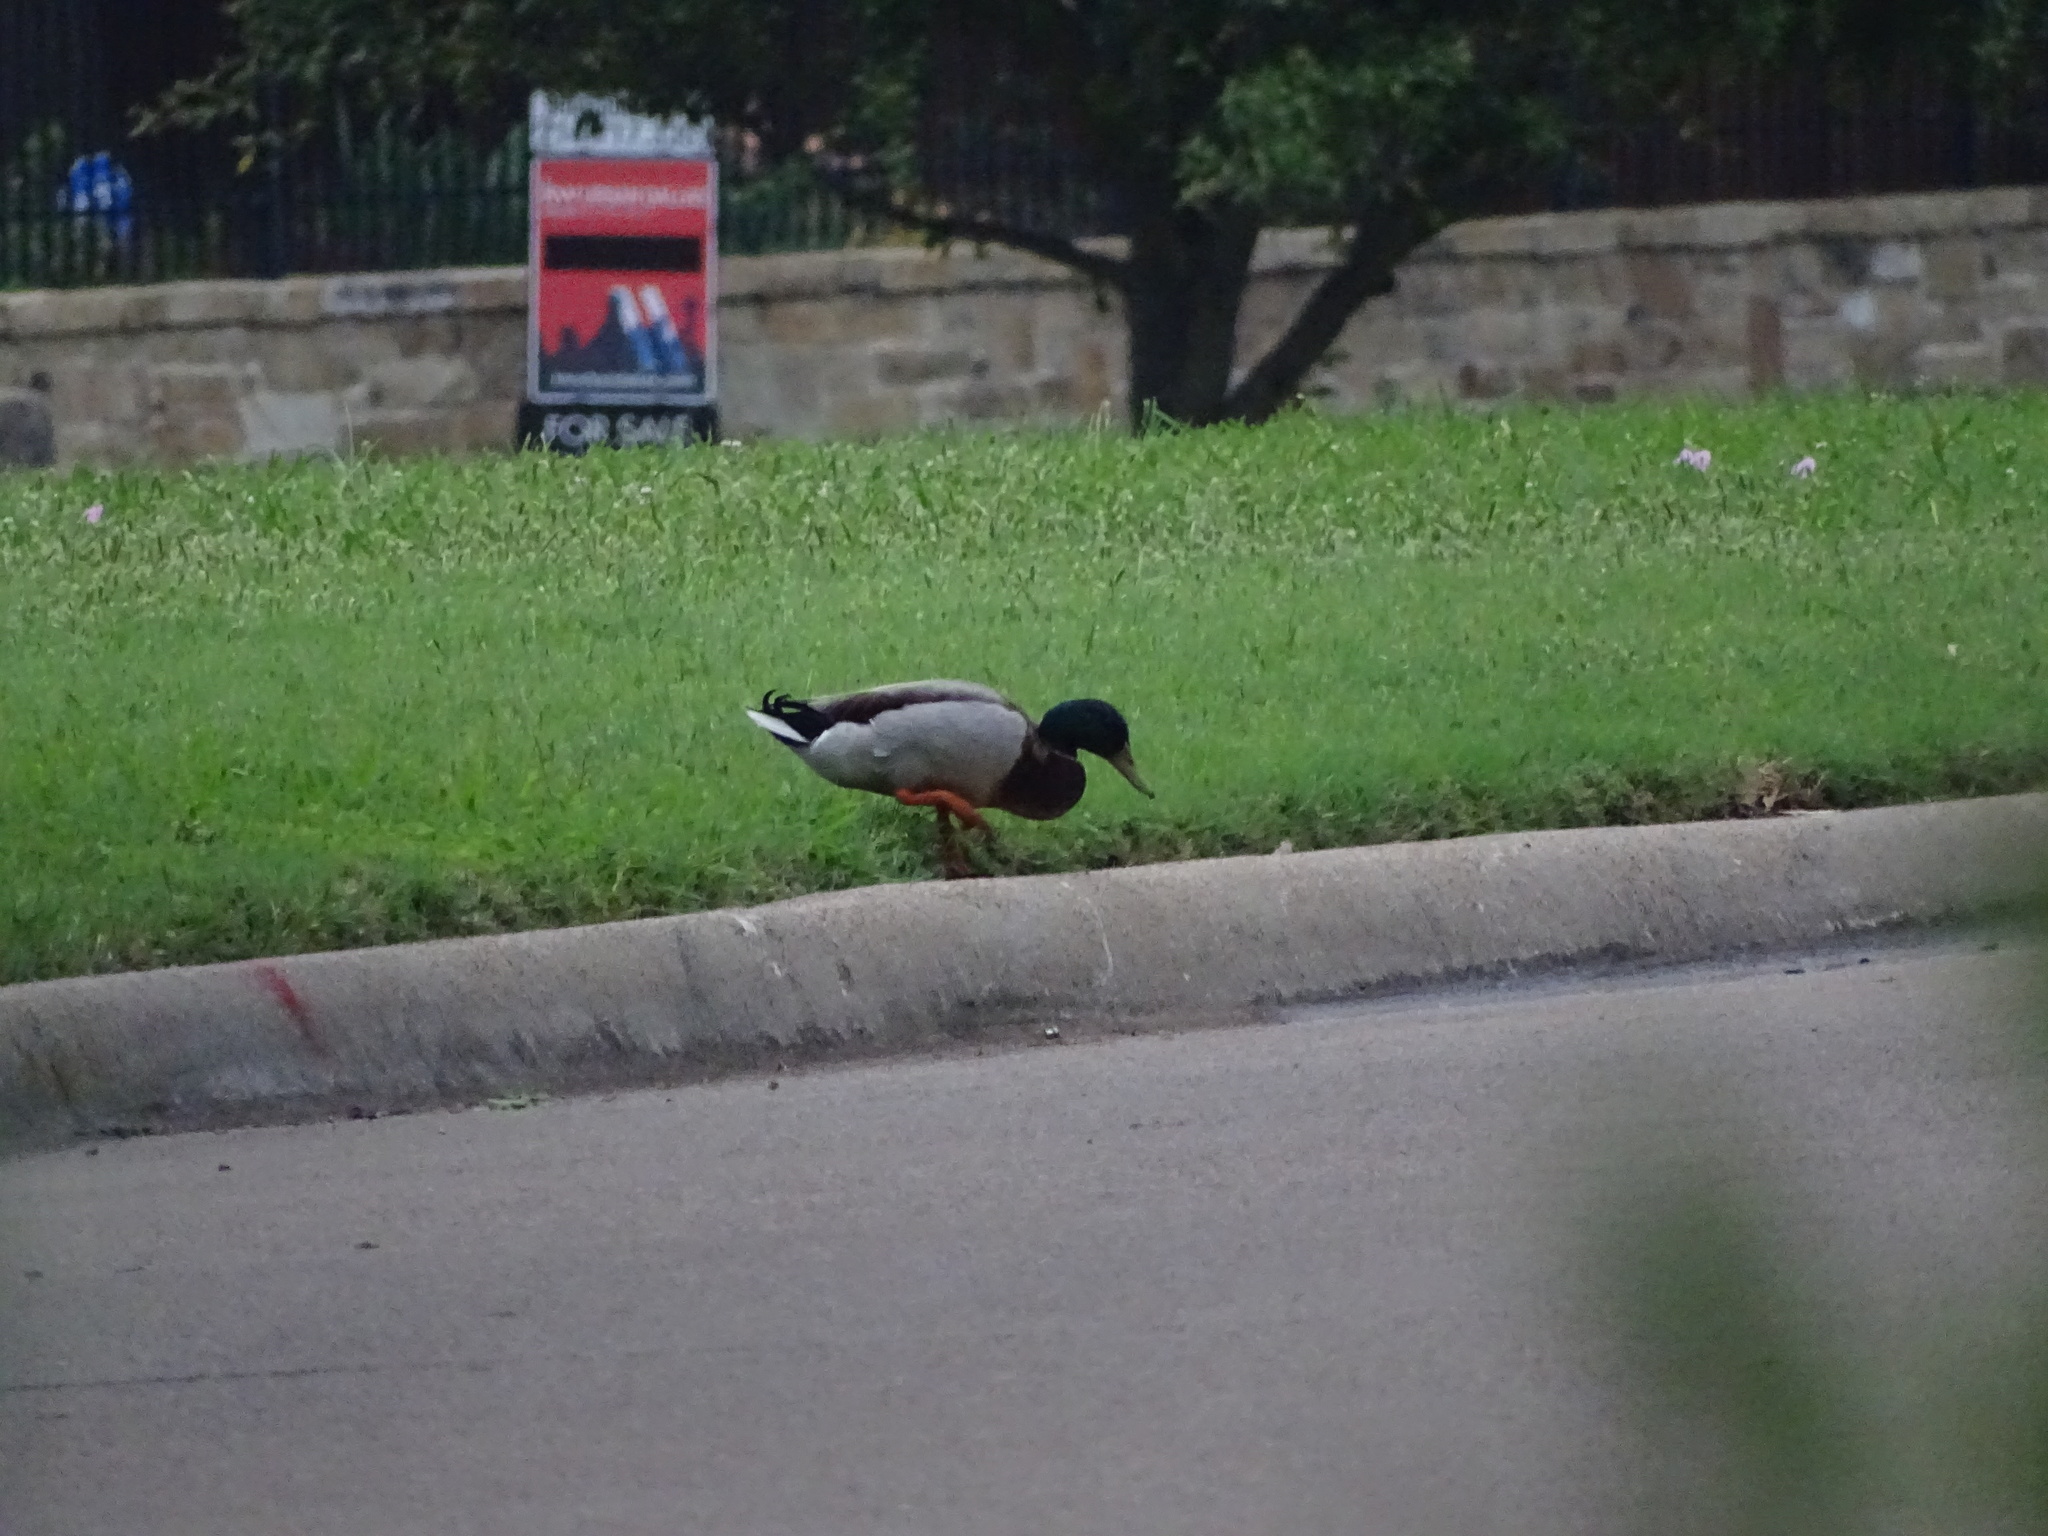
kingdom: Animalia
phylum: Chordata
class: Aves
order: Anseriformes
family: Anatidae
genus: Anas
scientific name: Anas platyrhynchos
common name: Mallard
